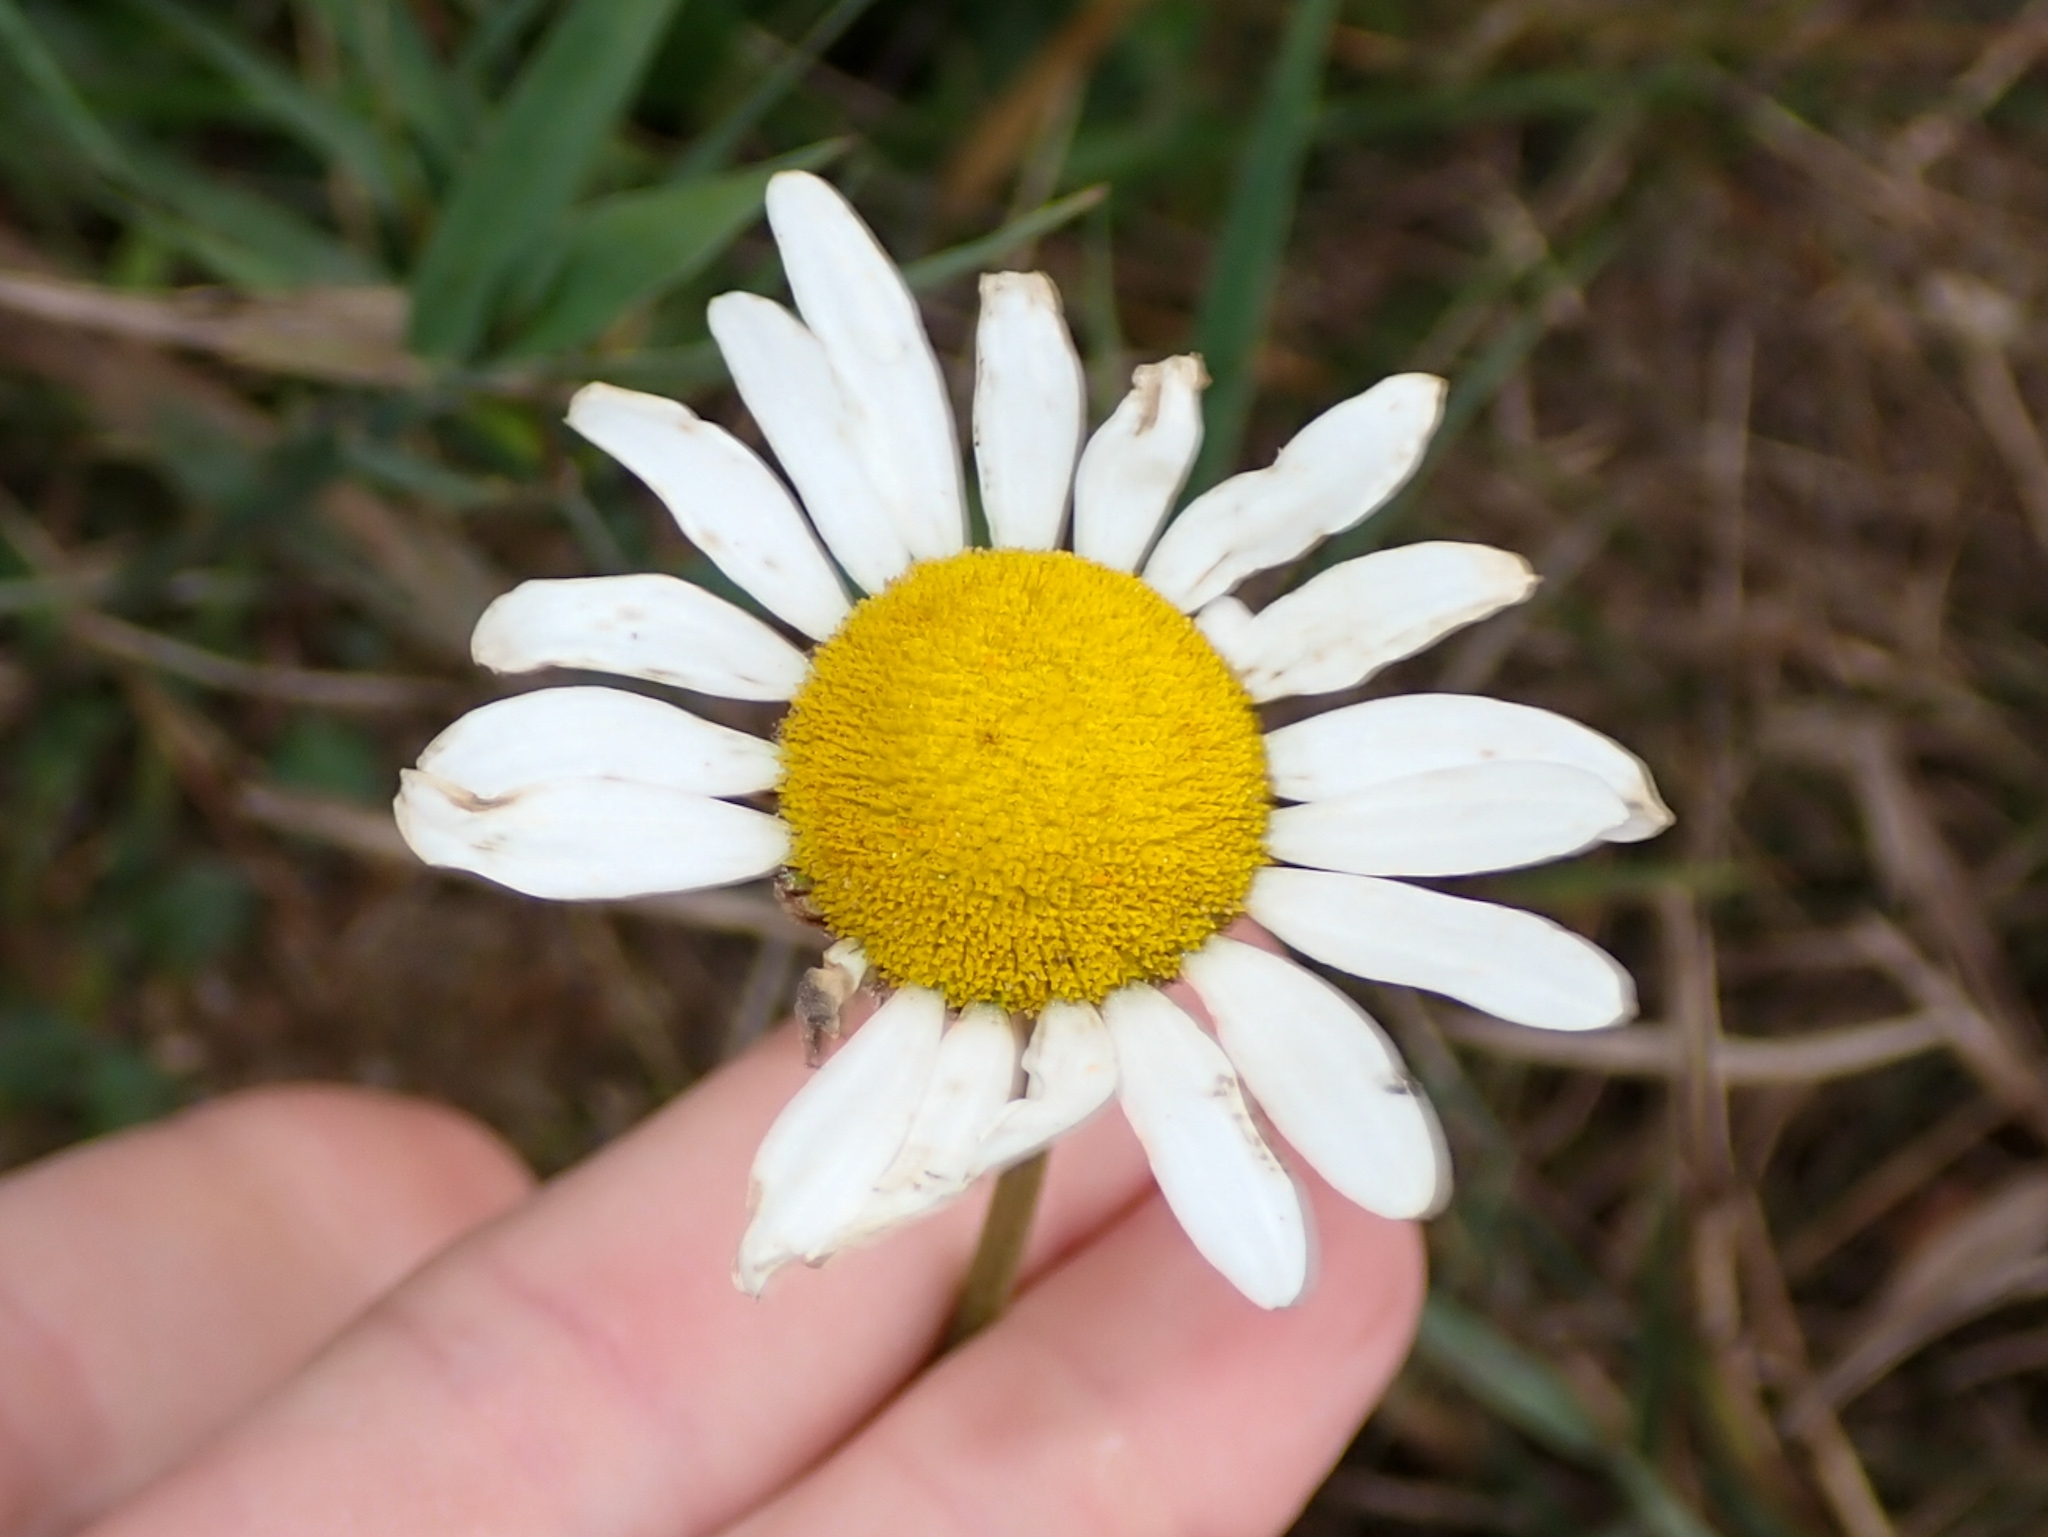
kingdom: Plantae
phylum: Tracheophyta
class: Magnoliopsida
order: Asterales
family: Asteraceae
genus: Leucanthemum
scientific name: Leucanthemum vulgare
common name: Oxeye daisy
